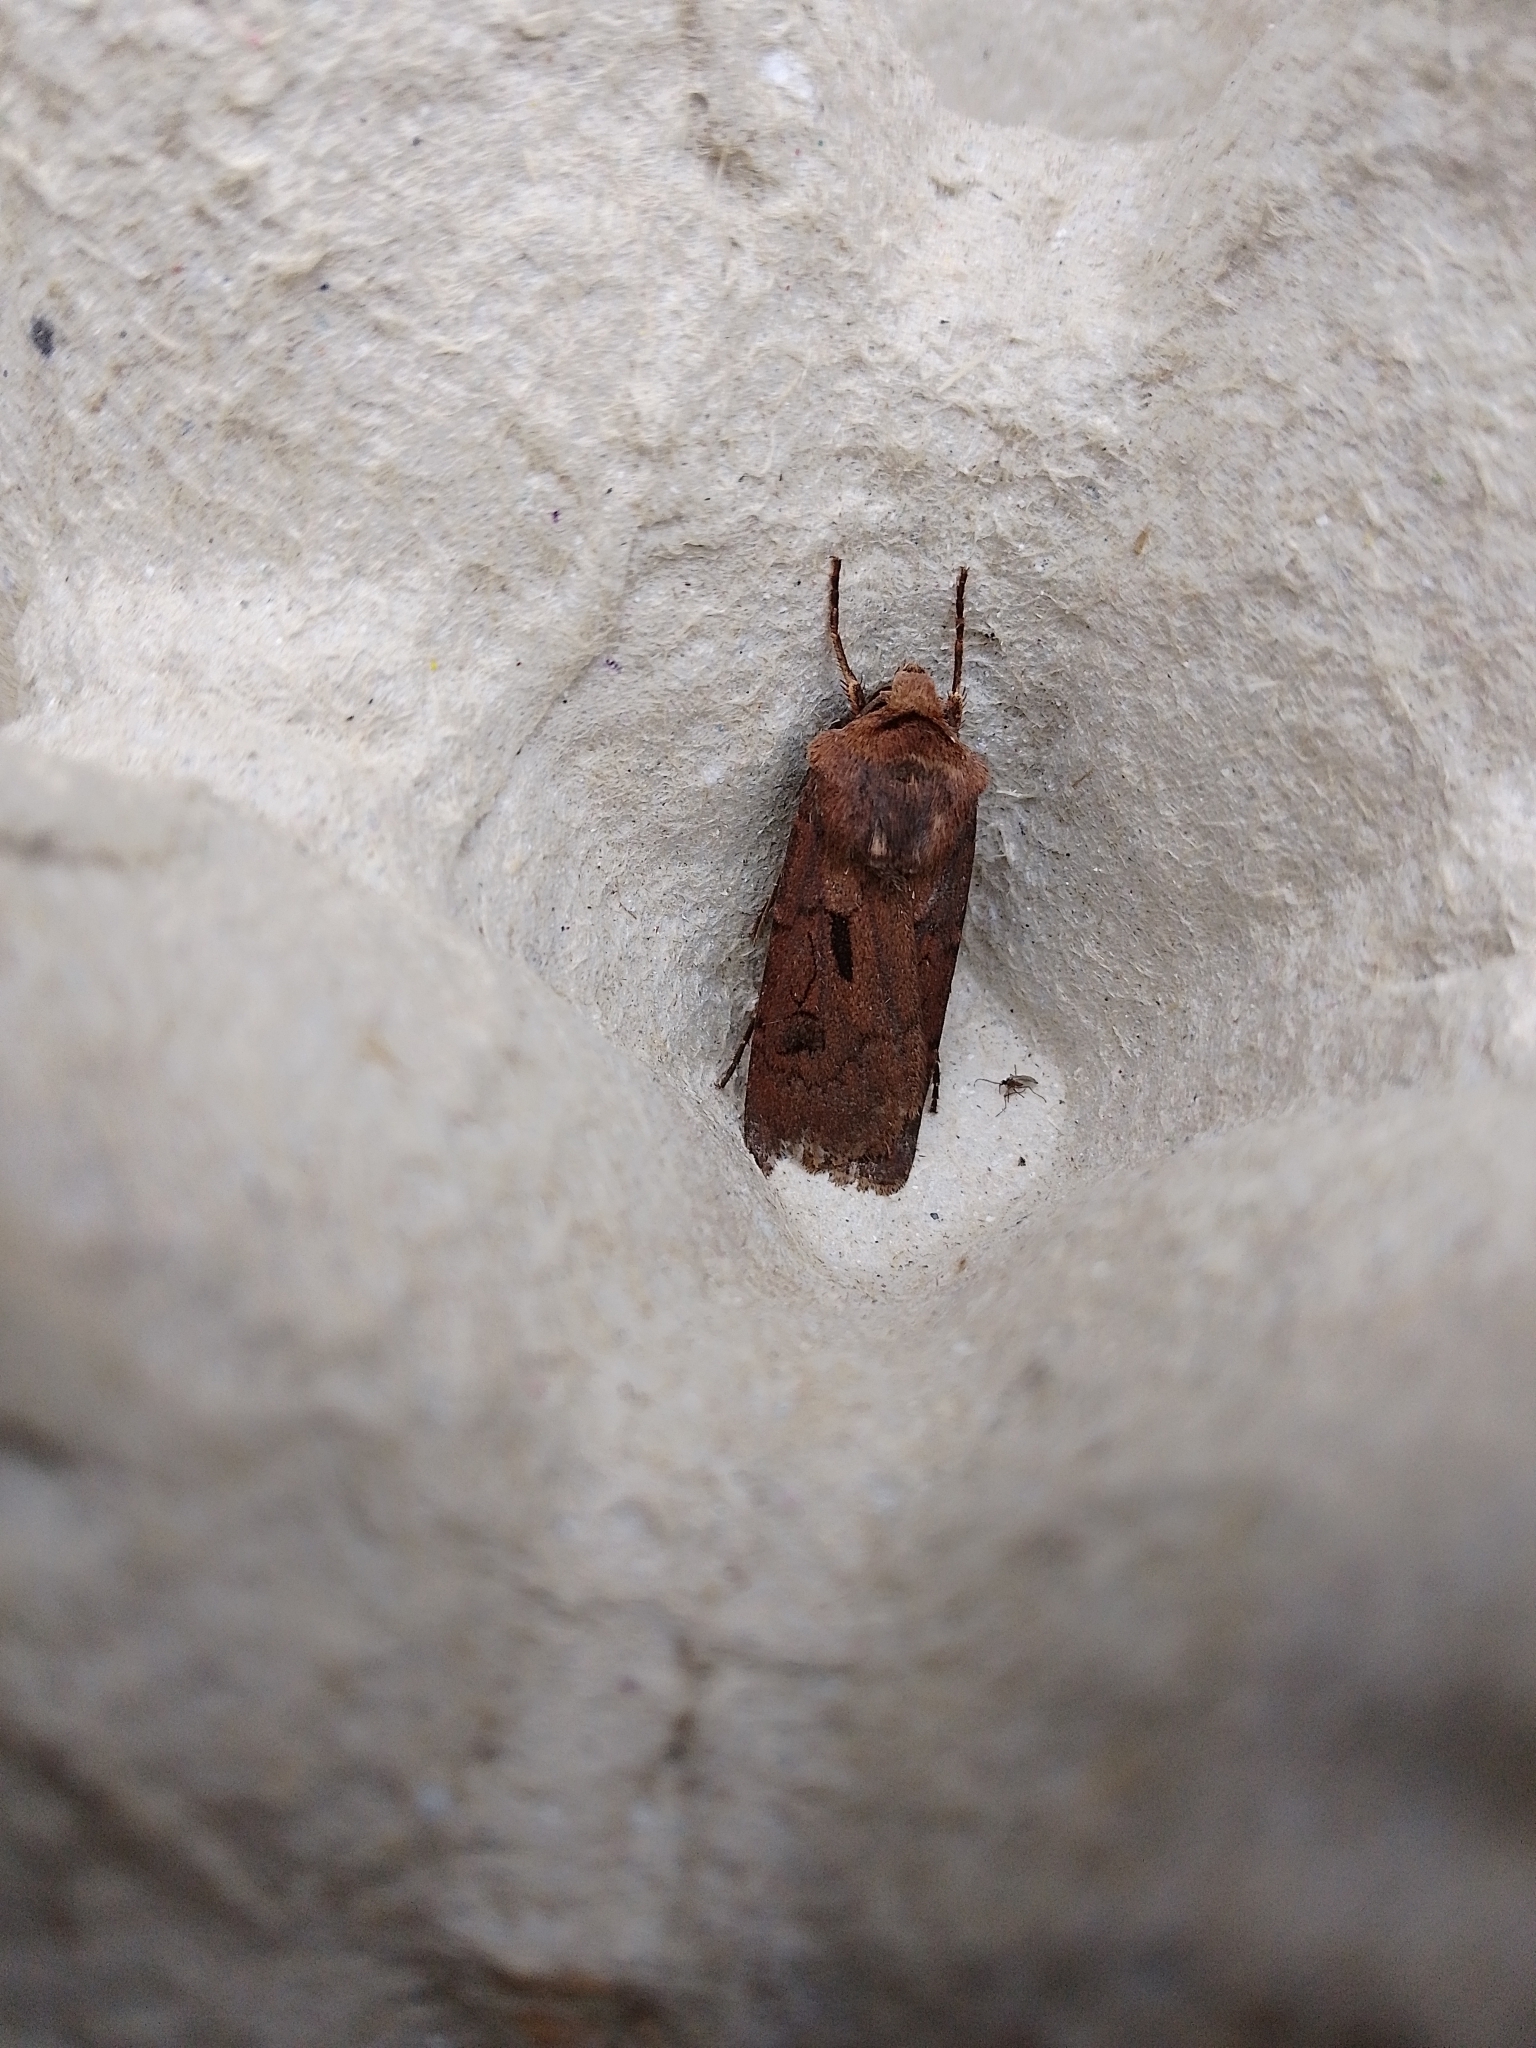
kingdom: Animalia
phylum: Arthropoda
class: Insecta
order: Lepidoptera
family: Noctuidae
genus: Agrotis
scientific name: Agrotis exclamationis
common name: Heart and dart
